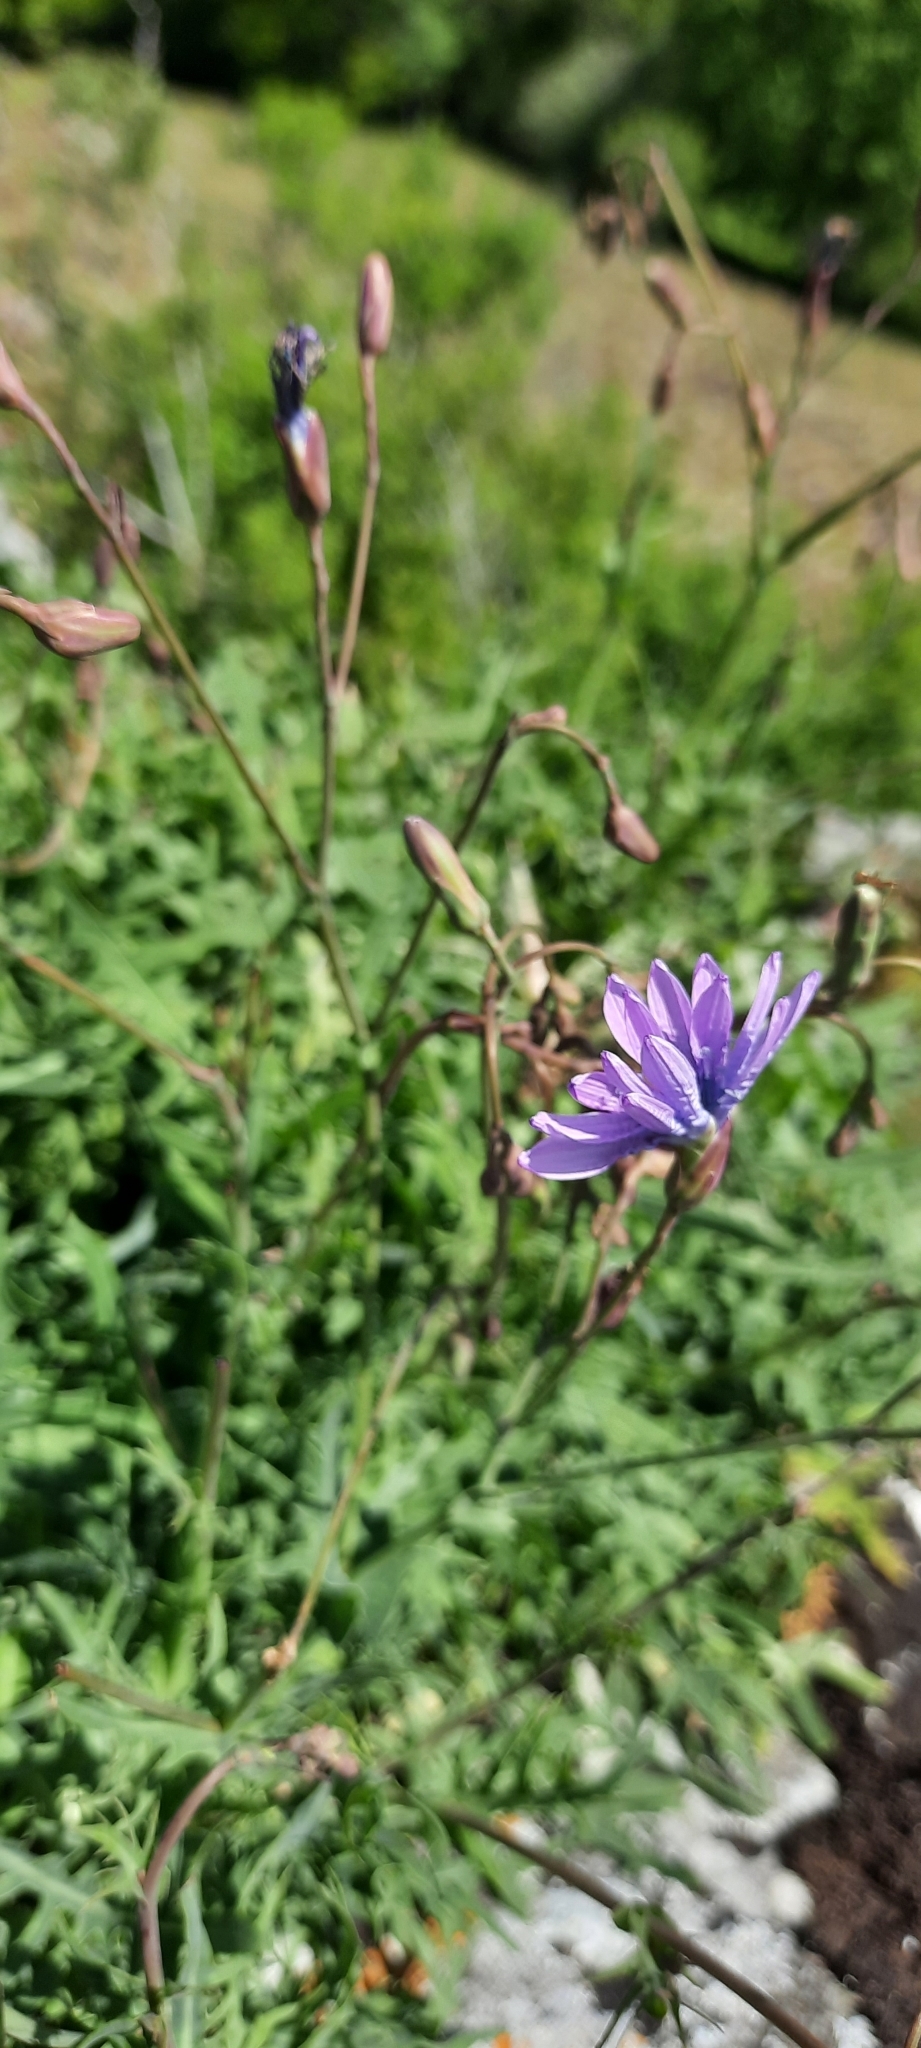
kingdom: Plantae
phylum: Tracheophyta
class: Magnoliopsida
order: Asterales
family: Asteraceae
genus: Lactuca
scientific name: Lactuca perennis
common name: Mountain lettuce
